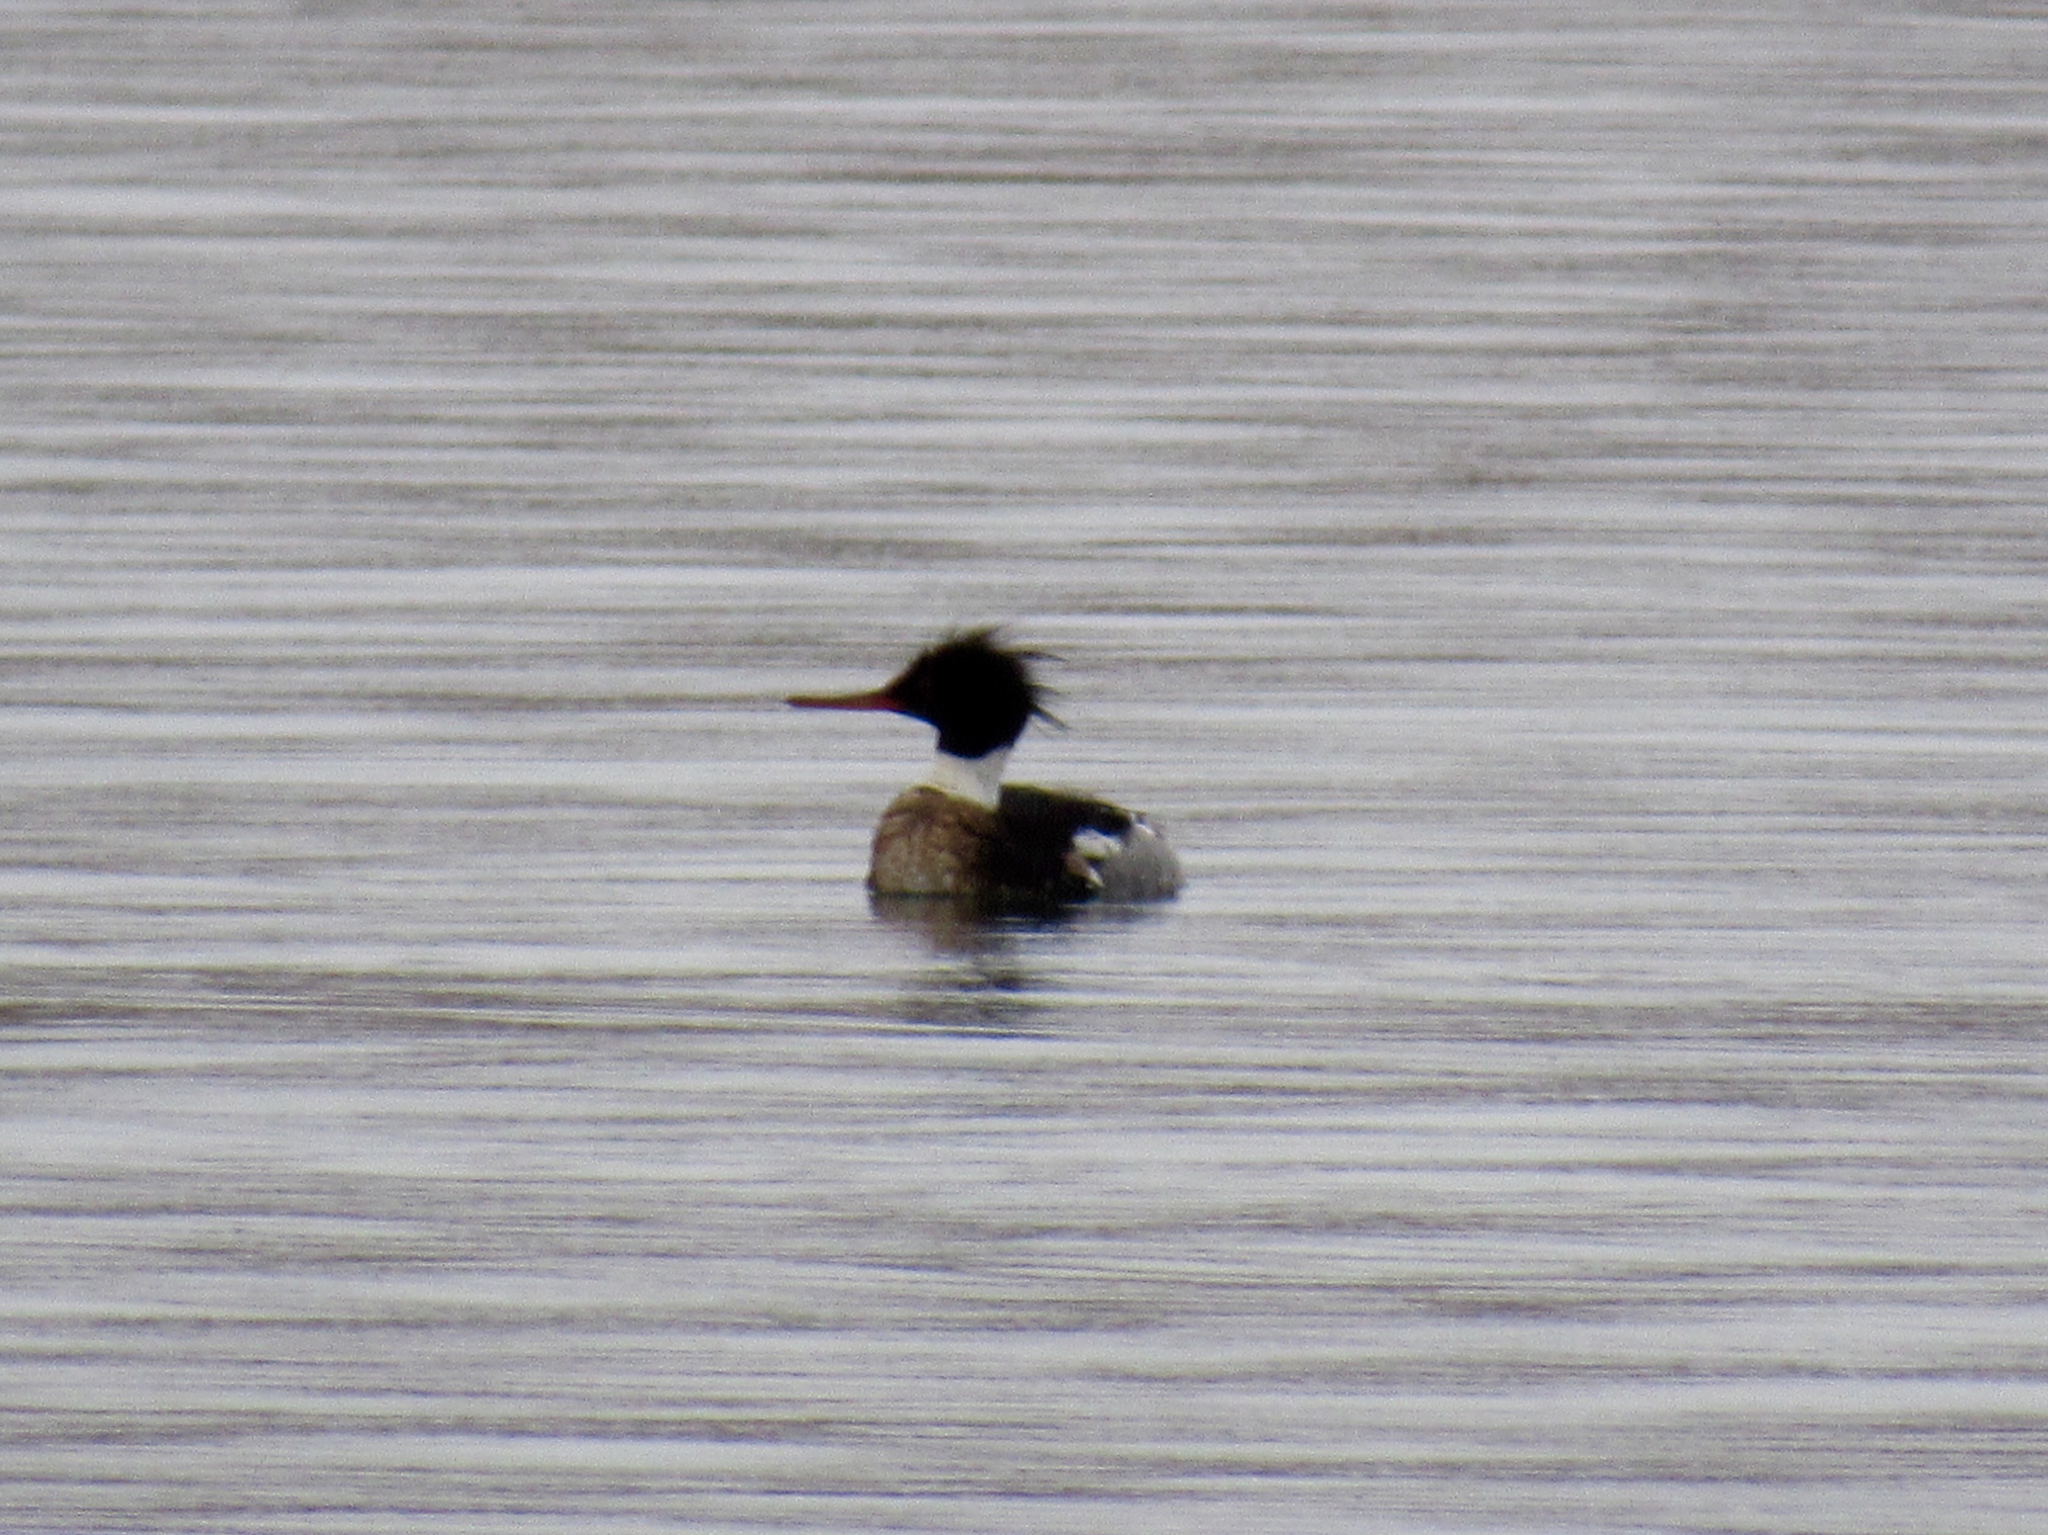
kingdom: Animalia
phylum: Chordata
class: Aves
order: Anseriformes
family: Anatidae
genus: Mergus
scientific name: Mergus serrator
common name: Red-breasted merganser
